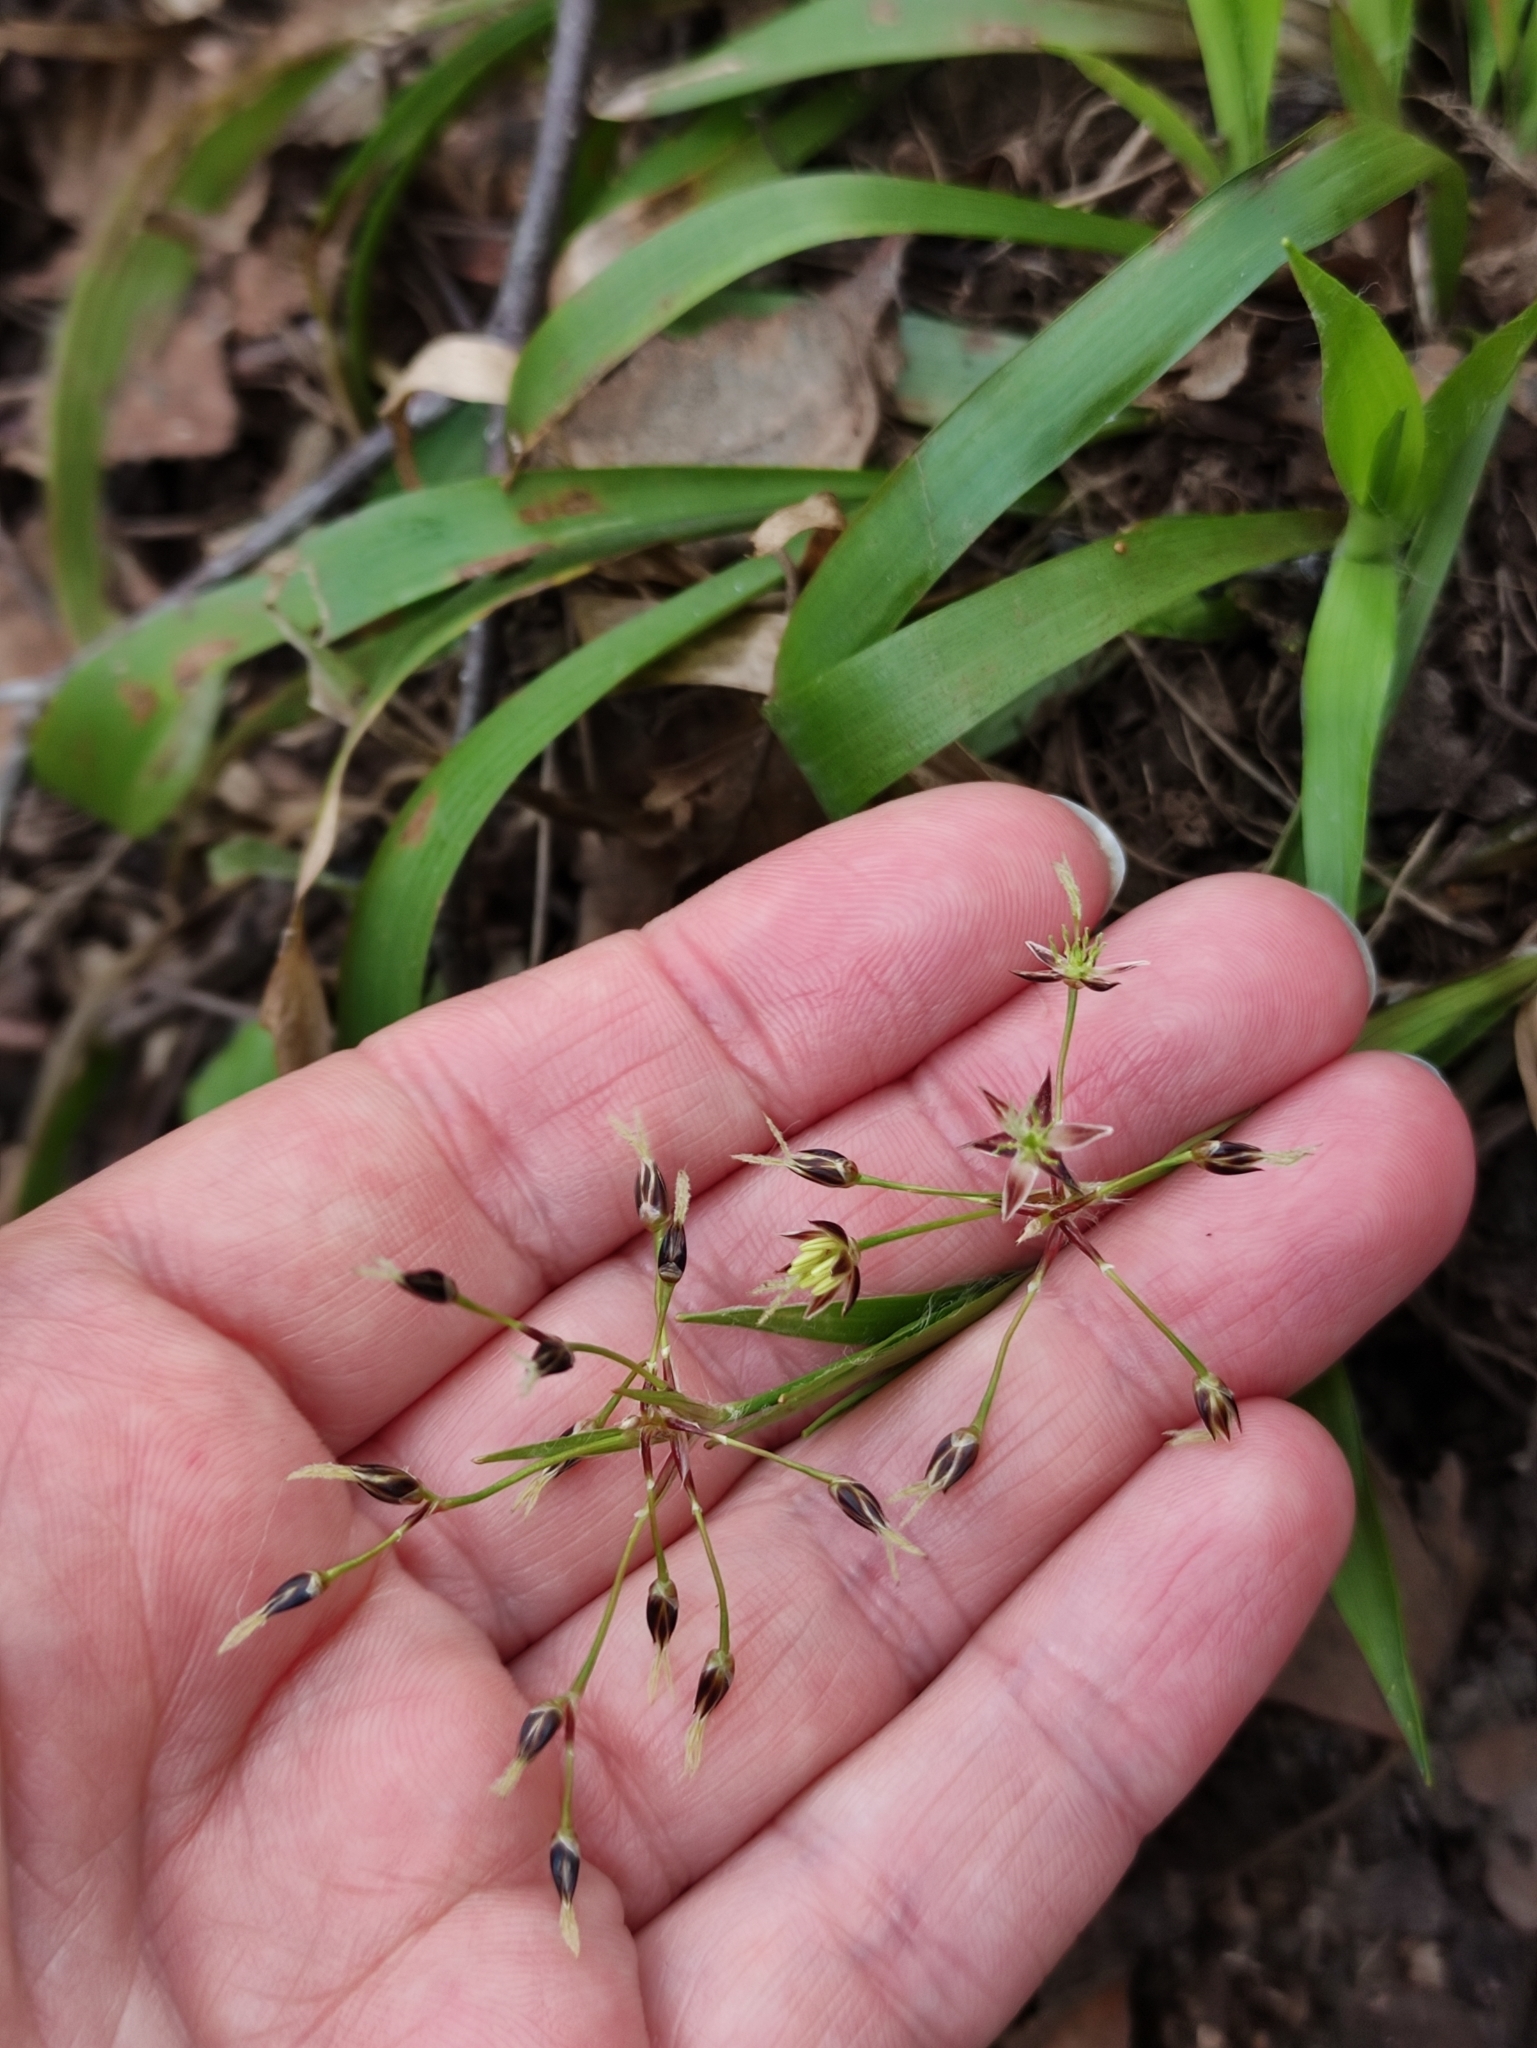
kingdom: Plantae
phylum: Tracheophyta
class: Liliopsida
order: Poales
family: Juncaceae
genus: Luzula
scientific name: Luzula pilosa
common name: Hairy wood-rush
